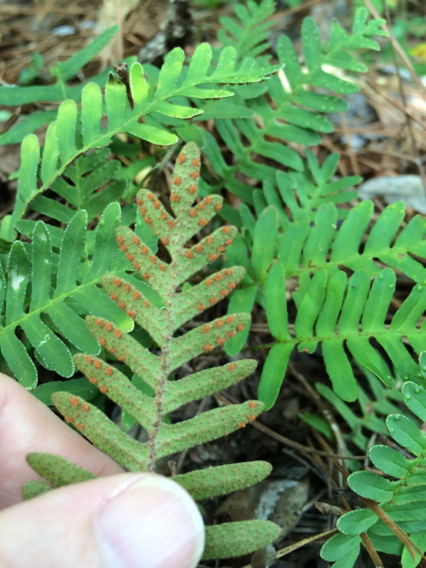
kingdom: Plantae
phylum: Tracheophyta
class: Polypodiopsida
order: Polypodiales
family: Polypodiaceae
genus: Pleopeltis
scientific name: Pleopeltis michauxiana
